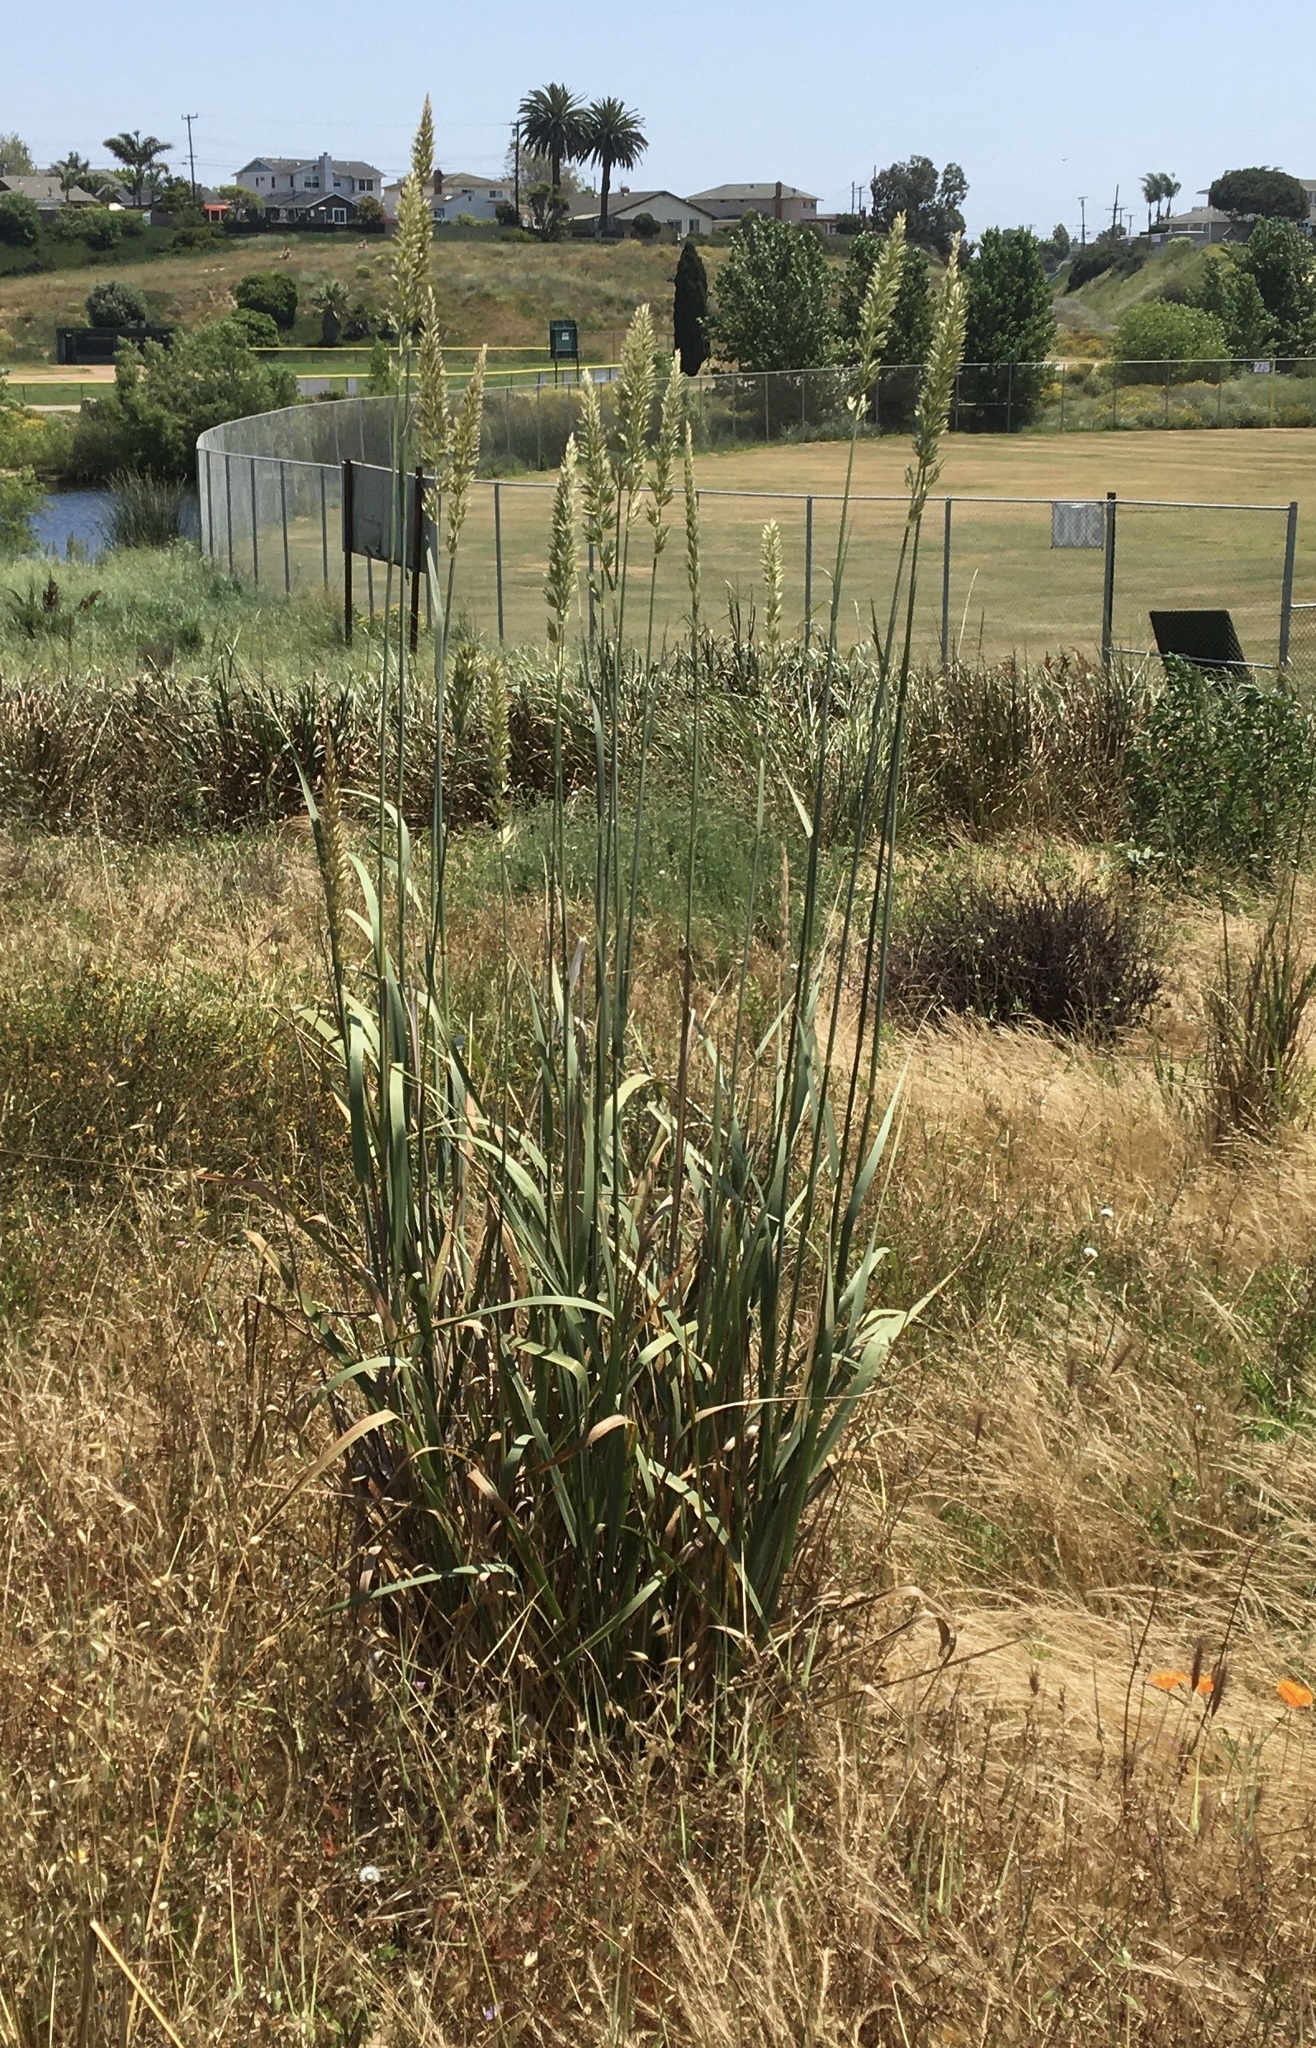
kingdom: Plantae
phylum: Tracheophyta
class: Liliopsida
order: Poales
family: Poaceae
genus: Leymus
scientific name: Leymus condensatus
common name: Giant wild rye
